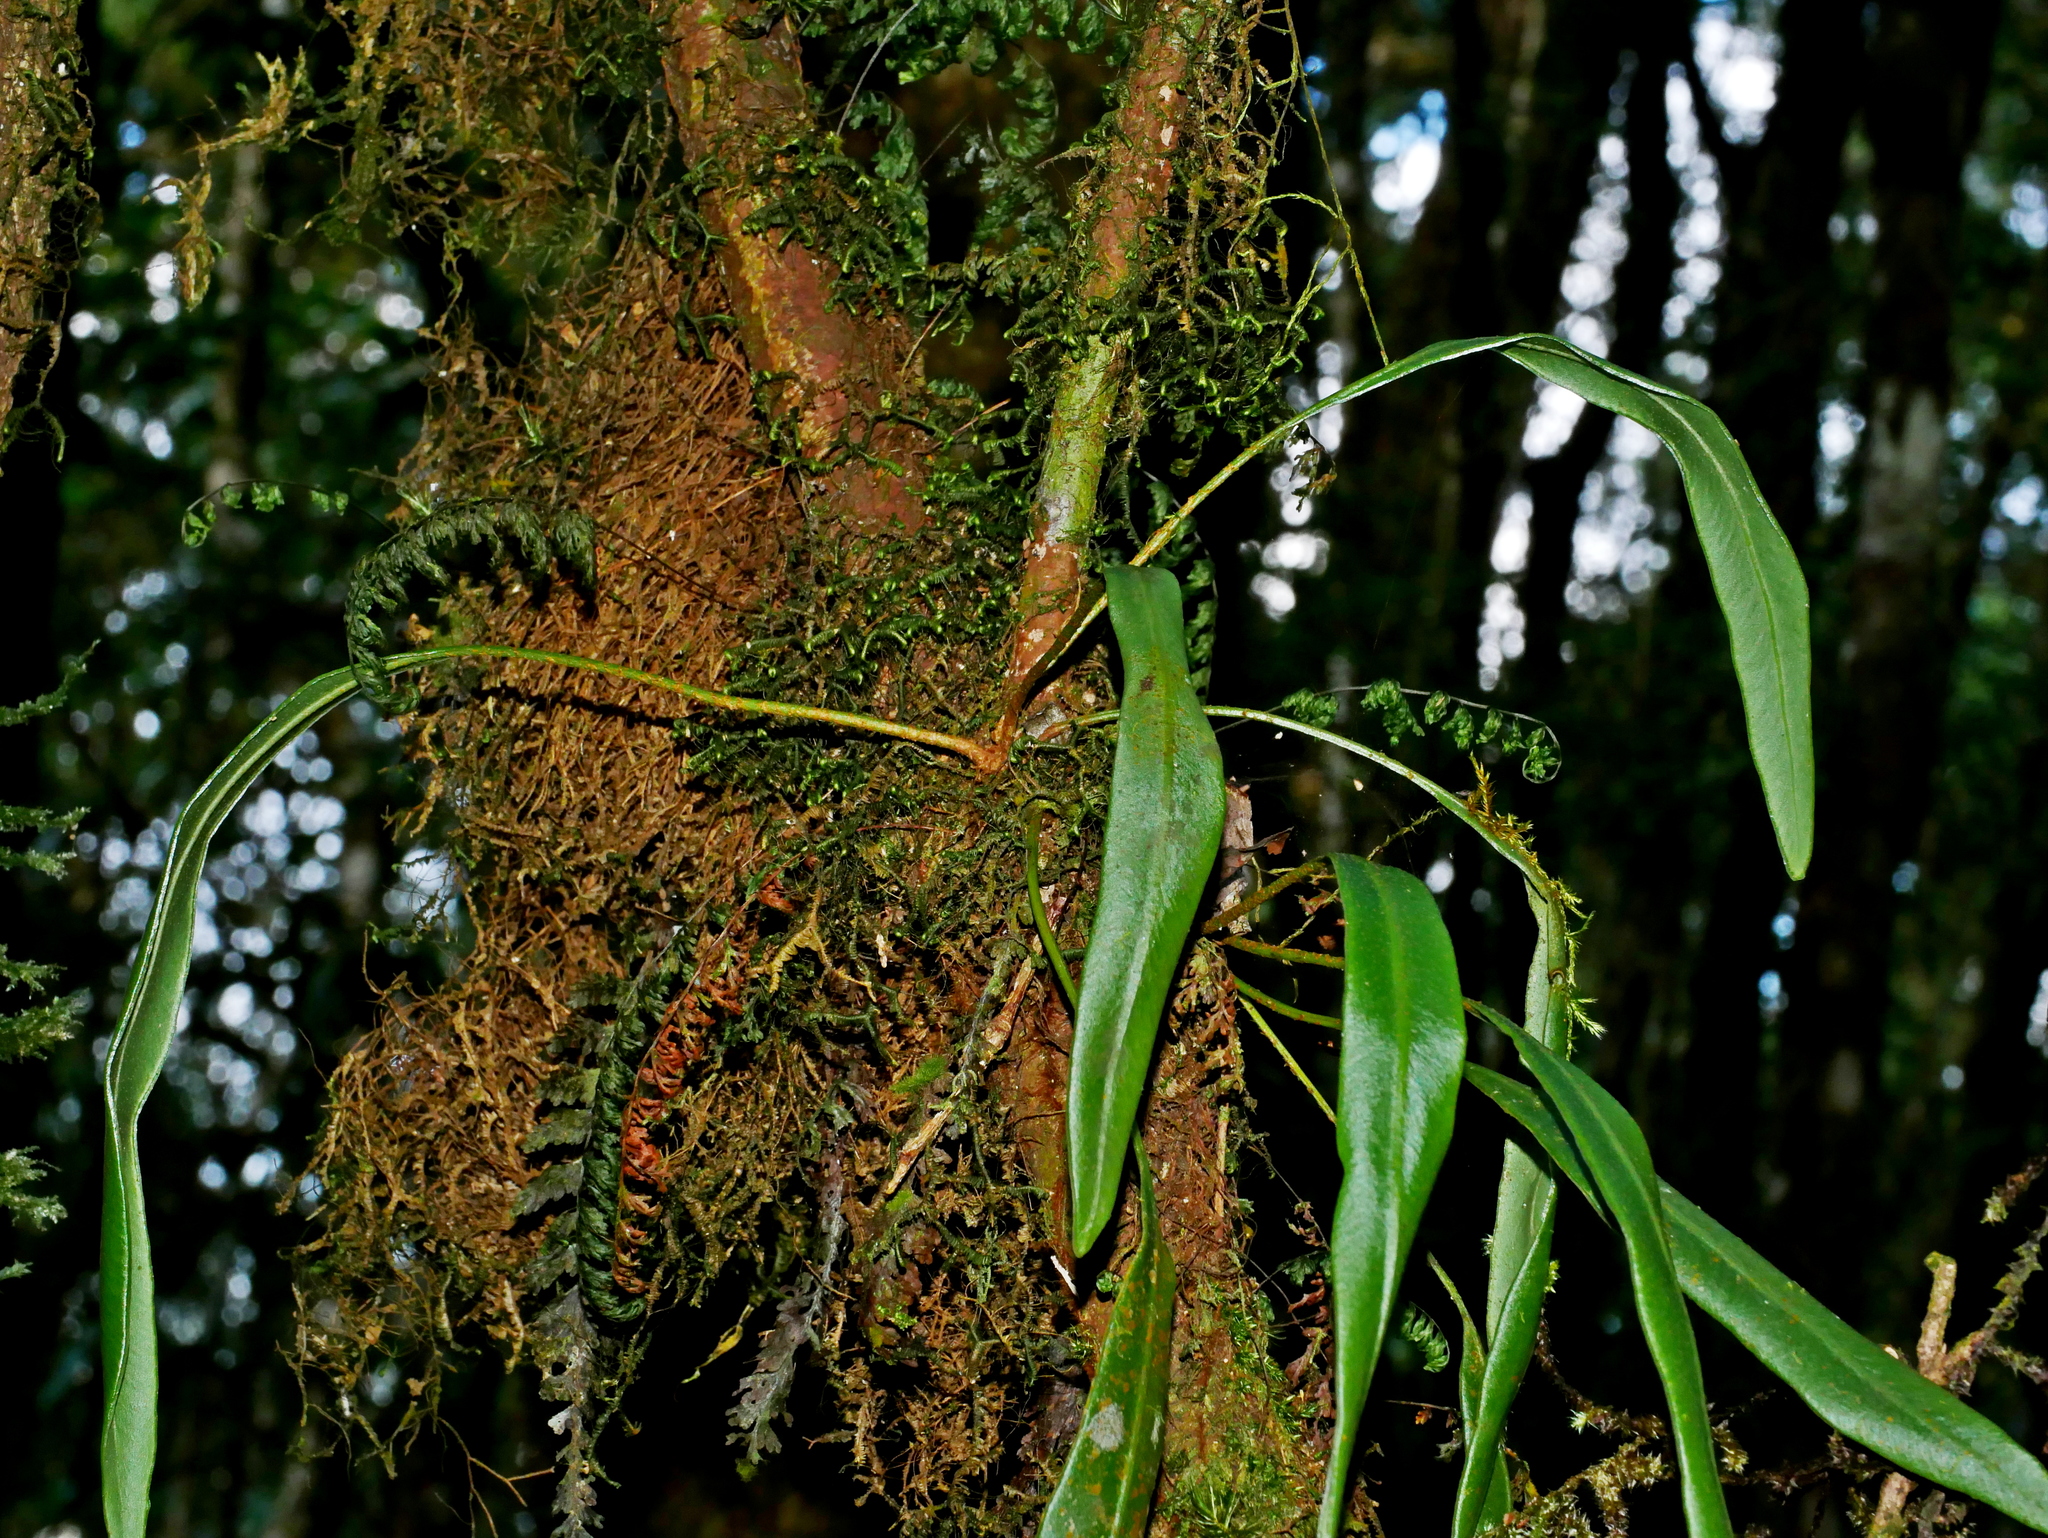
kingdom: Plantae
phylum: Tracheophyta
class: Polypodiopsida
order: Polypodiales
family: Dryopteridaceae
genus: Elaphoglossum
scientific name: Elaphoglossum marginatum
